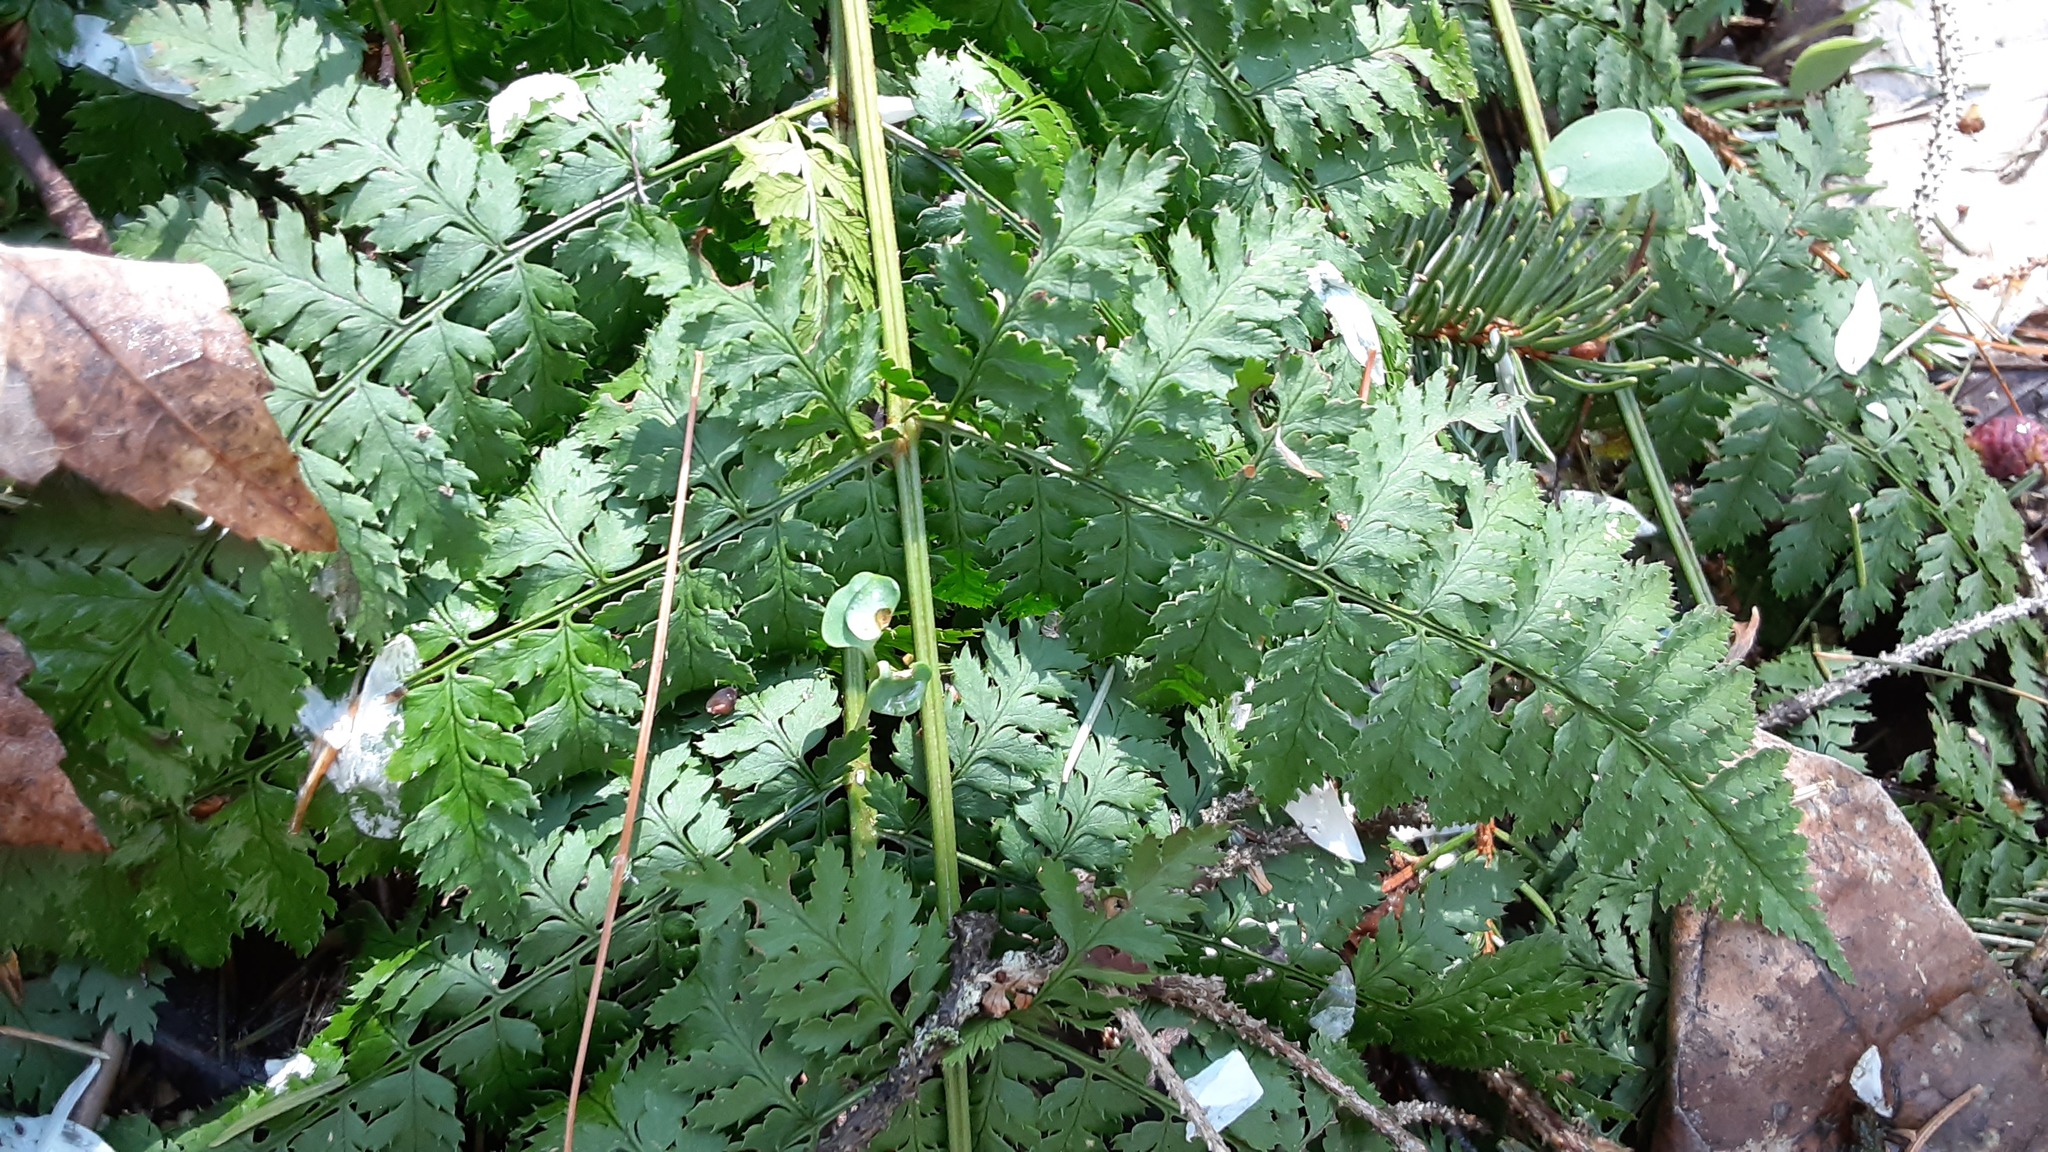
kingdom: Plantae
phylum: Tracheophyta
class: Polypodiopsida
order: Polypodiales
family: Dryopteridaceae
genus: Dryopteris
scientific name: Dryopteris intermedia
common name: Evergreen wood fern
